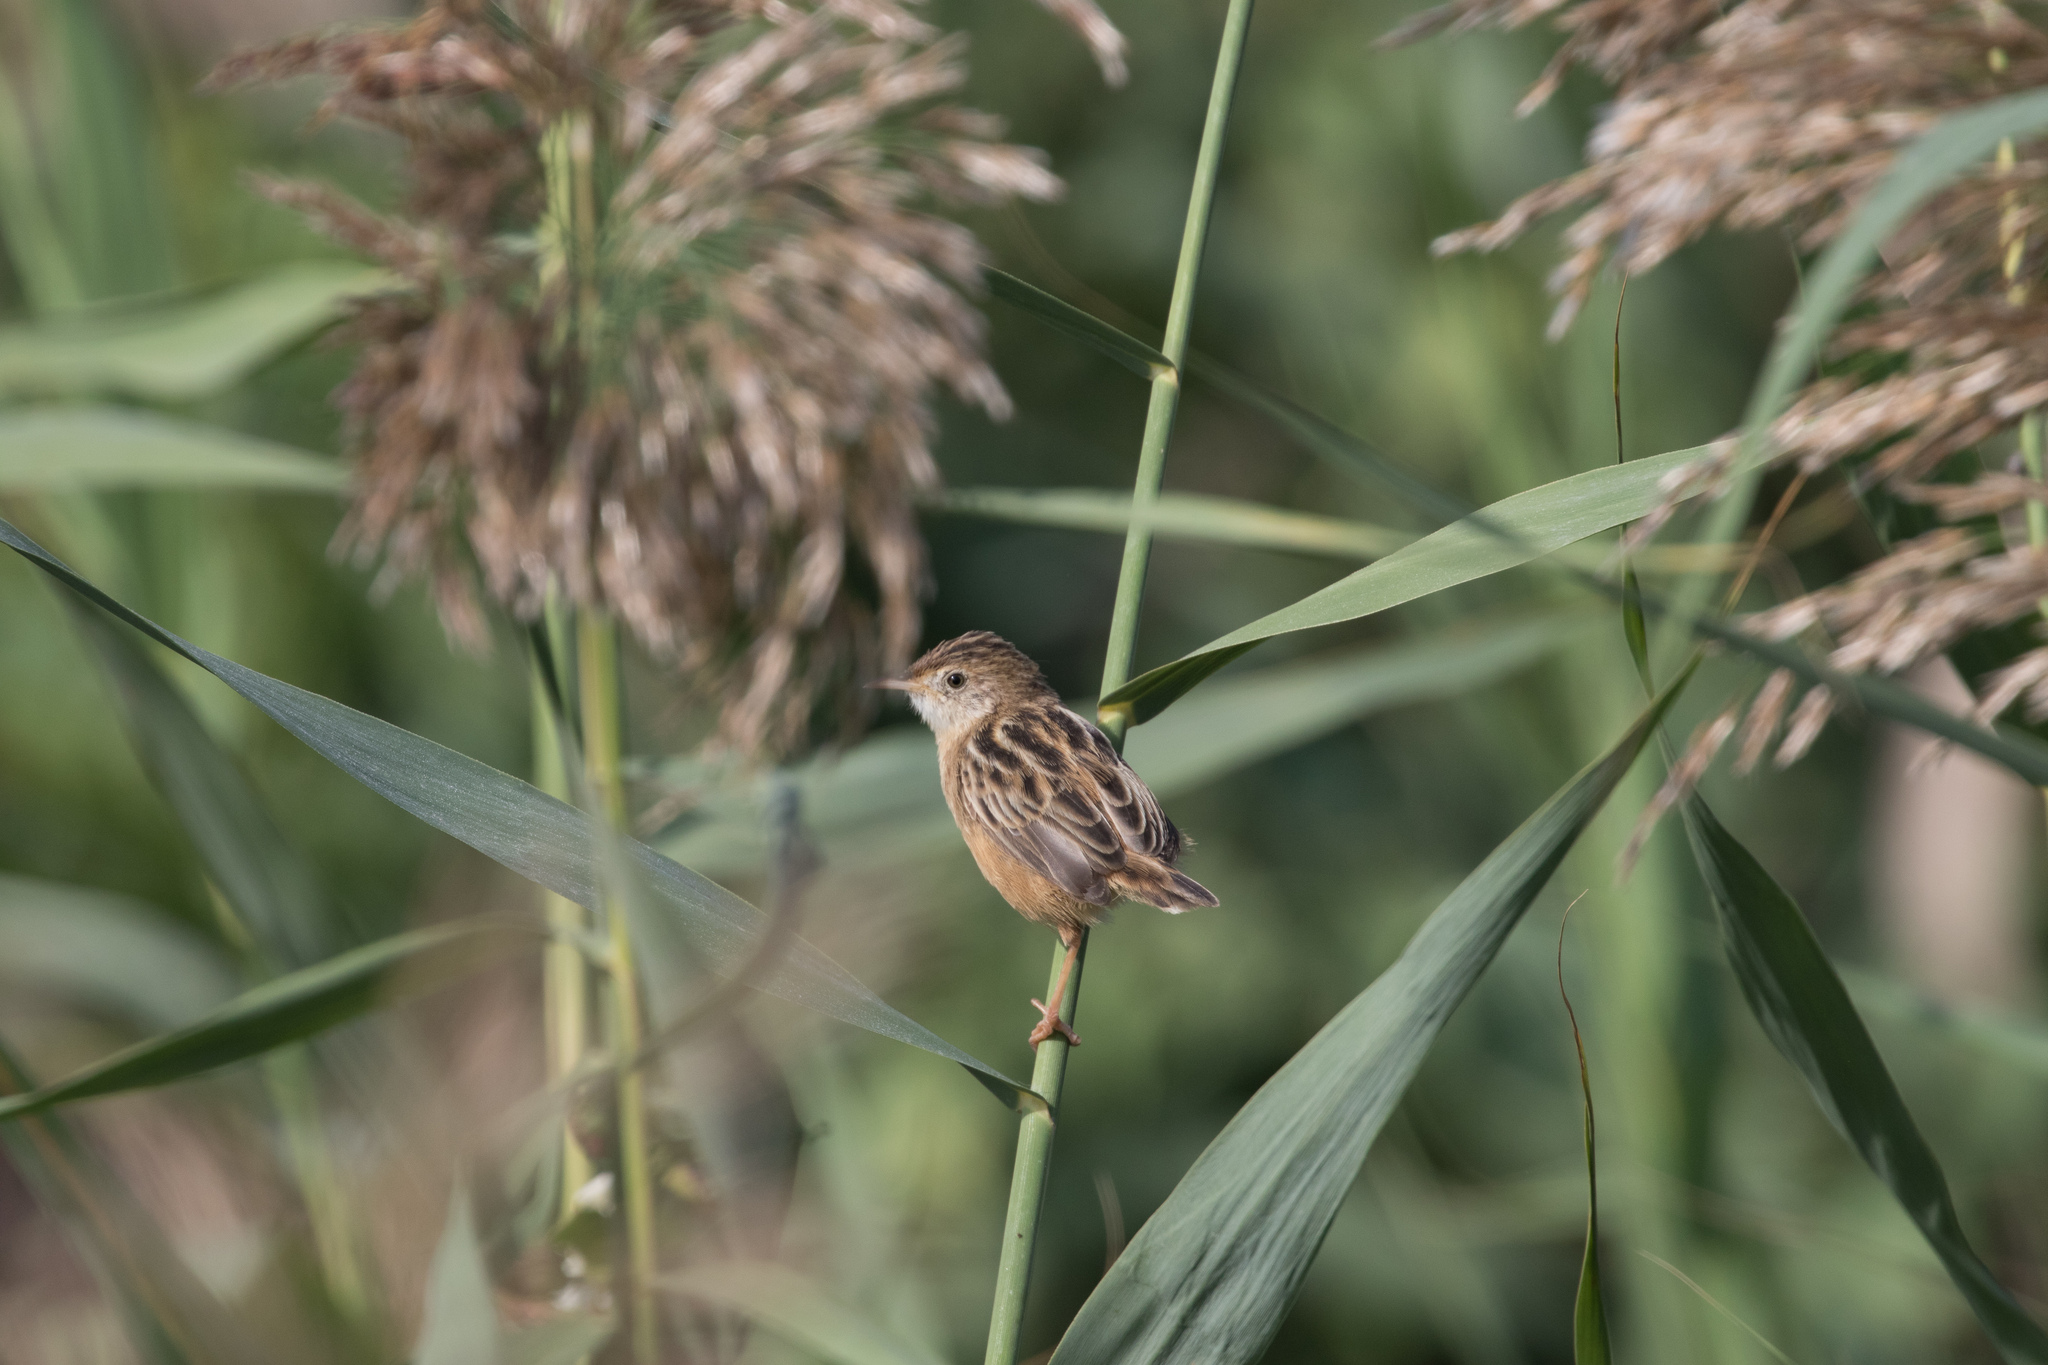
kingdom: Animalia
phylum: Chordata
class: Aves
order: Passeriformes
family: Cisticolidae
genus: Cisticola
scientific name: Cisticola juncidis
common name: Zitting cisticola
